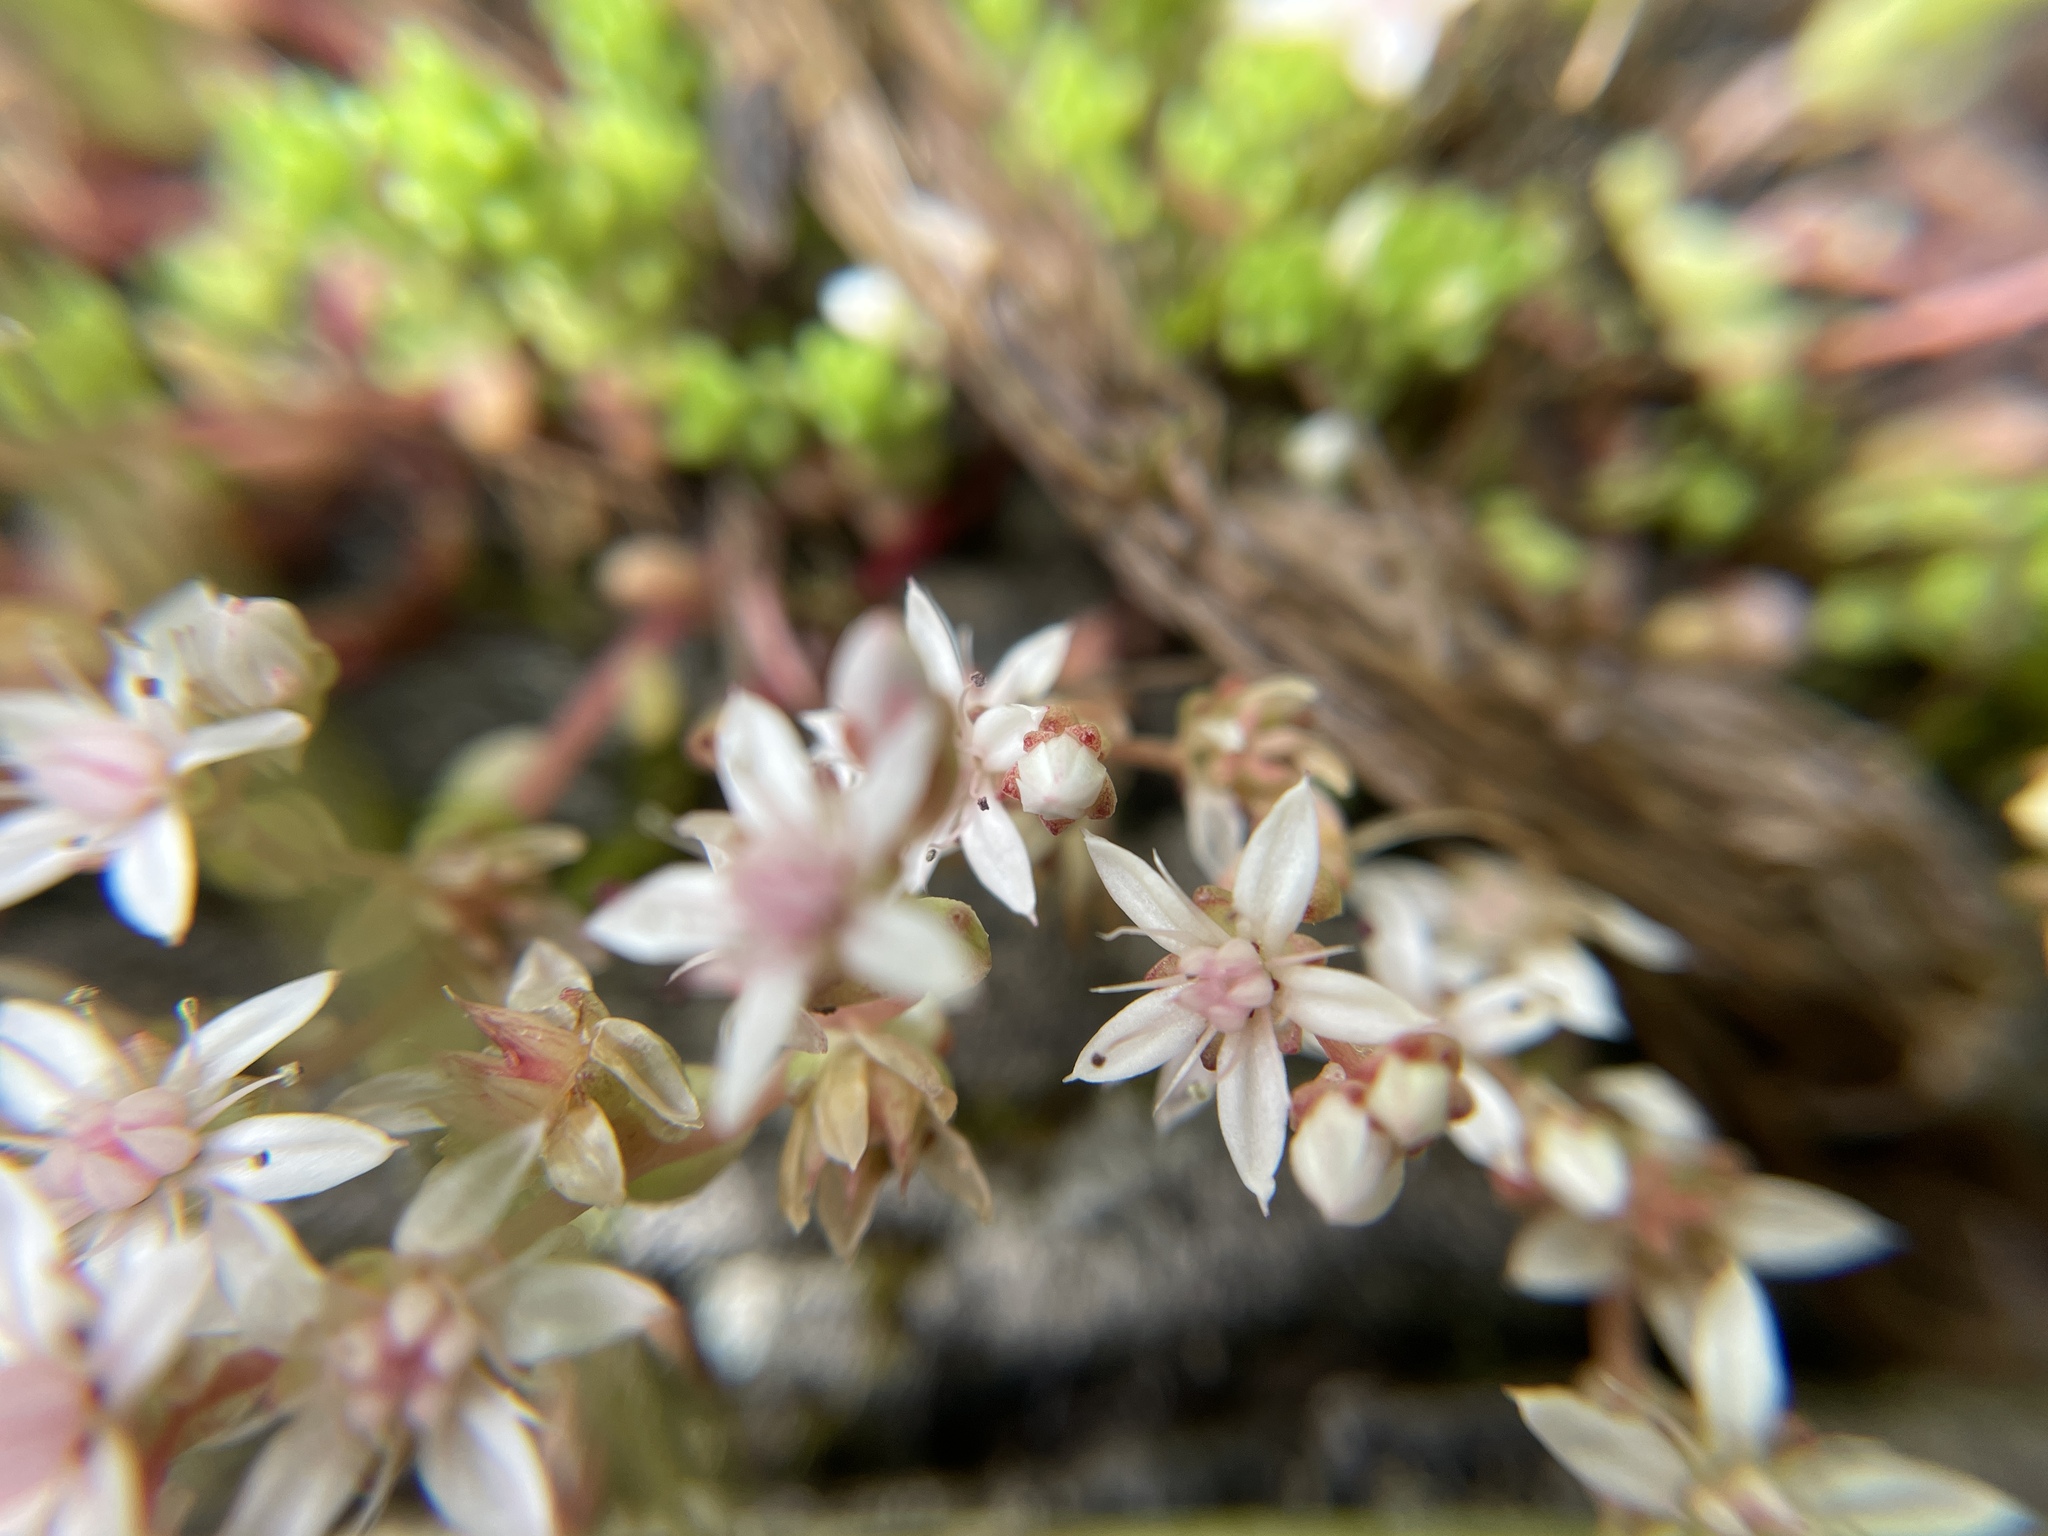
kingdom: Plantae
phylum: Tracheophyta
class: Magnoliopsida
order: Saxifragales
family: Crassulaceae
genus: Sedum
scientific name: Sedum anglicum
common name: English stonecrop
